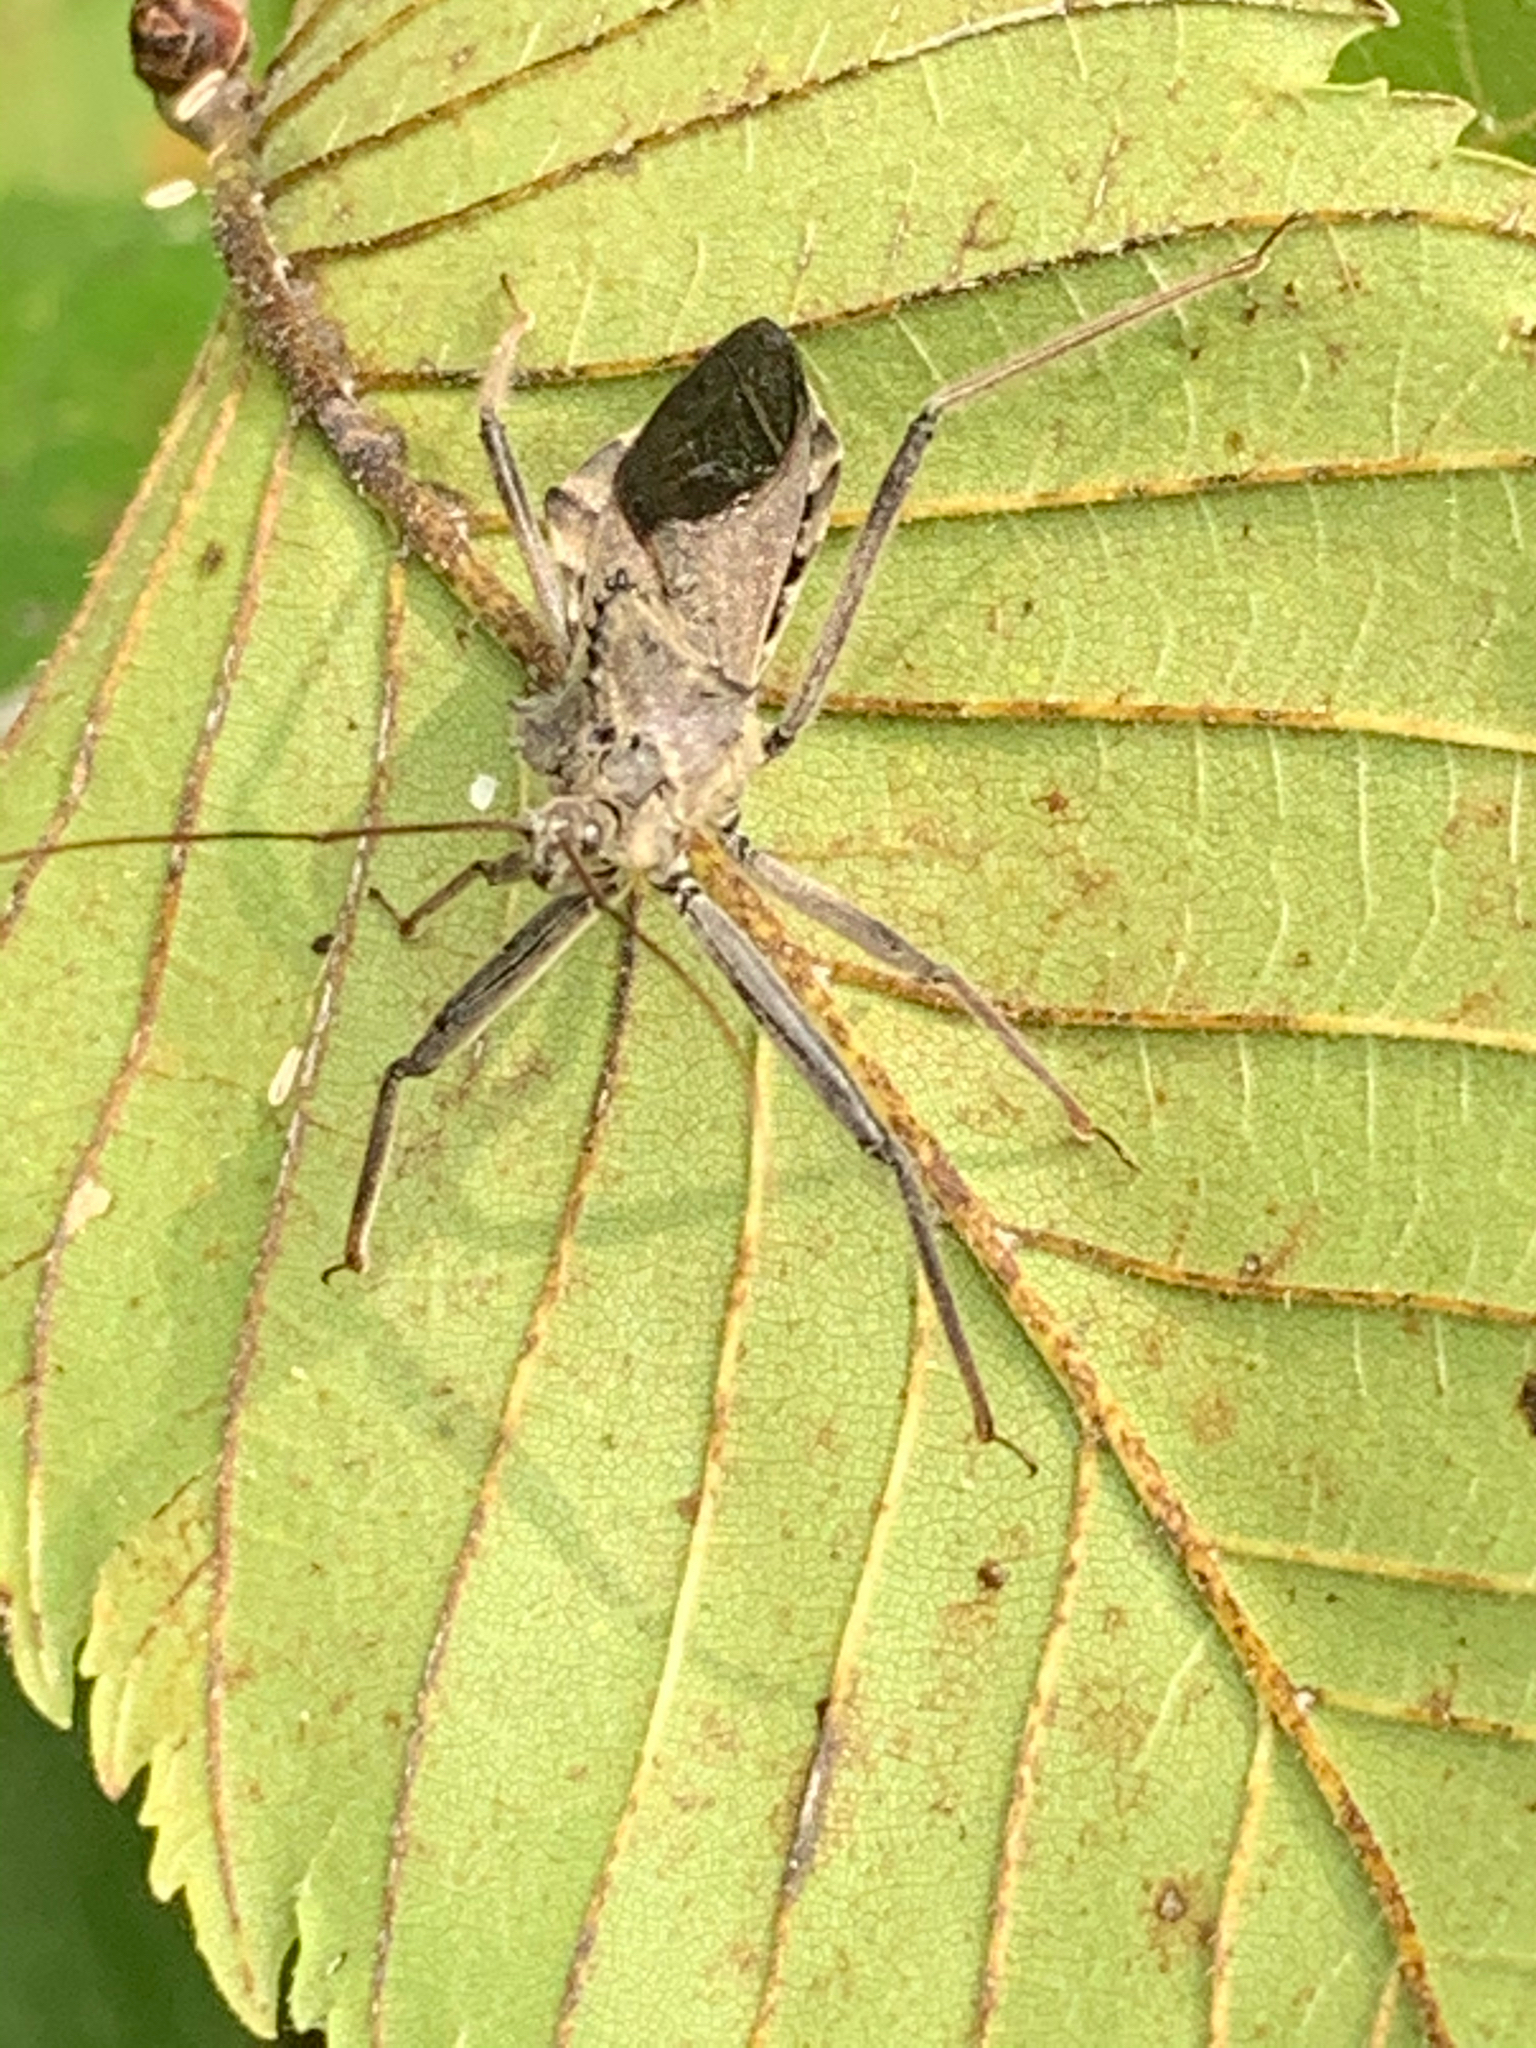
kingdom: Animalia
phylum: Arthropoda
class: Insecta
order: Hemiptera
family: Reduviidae
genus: Arilus
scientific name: Arilus cristatus
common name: North american wheel bug
